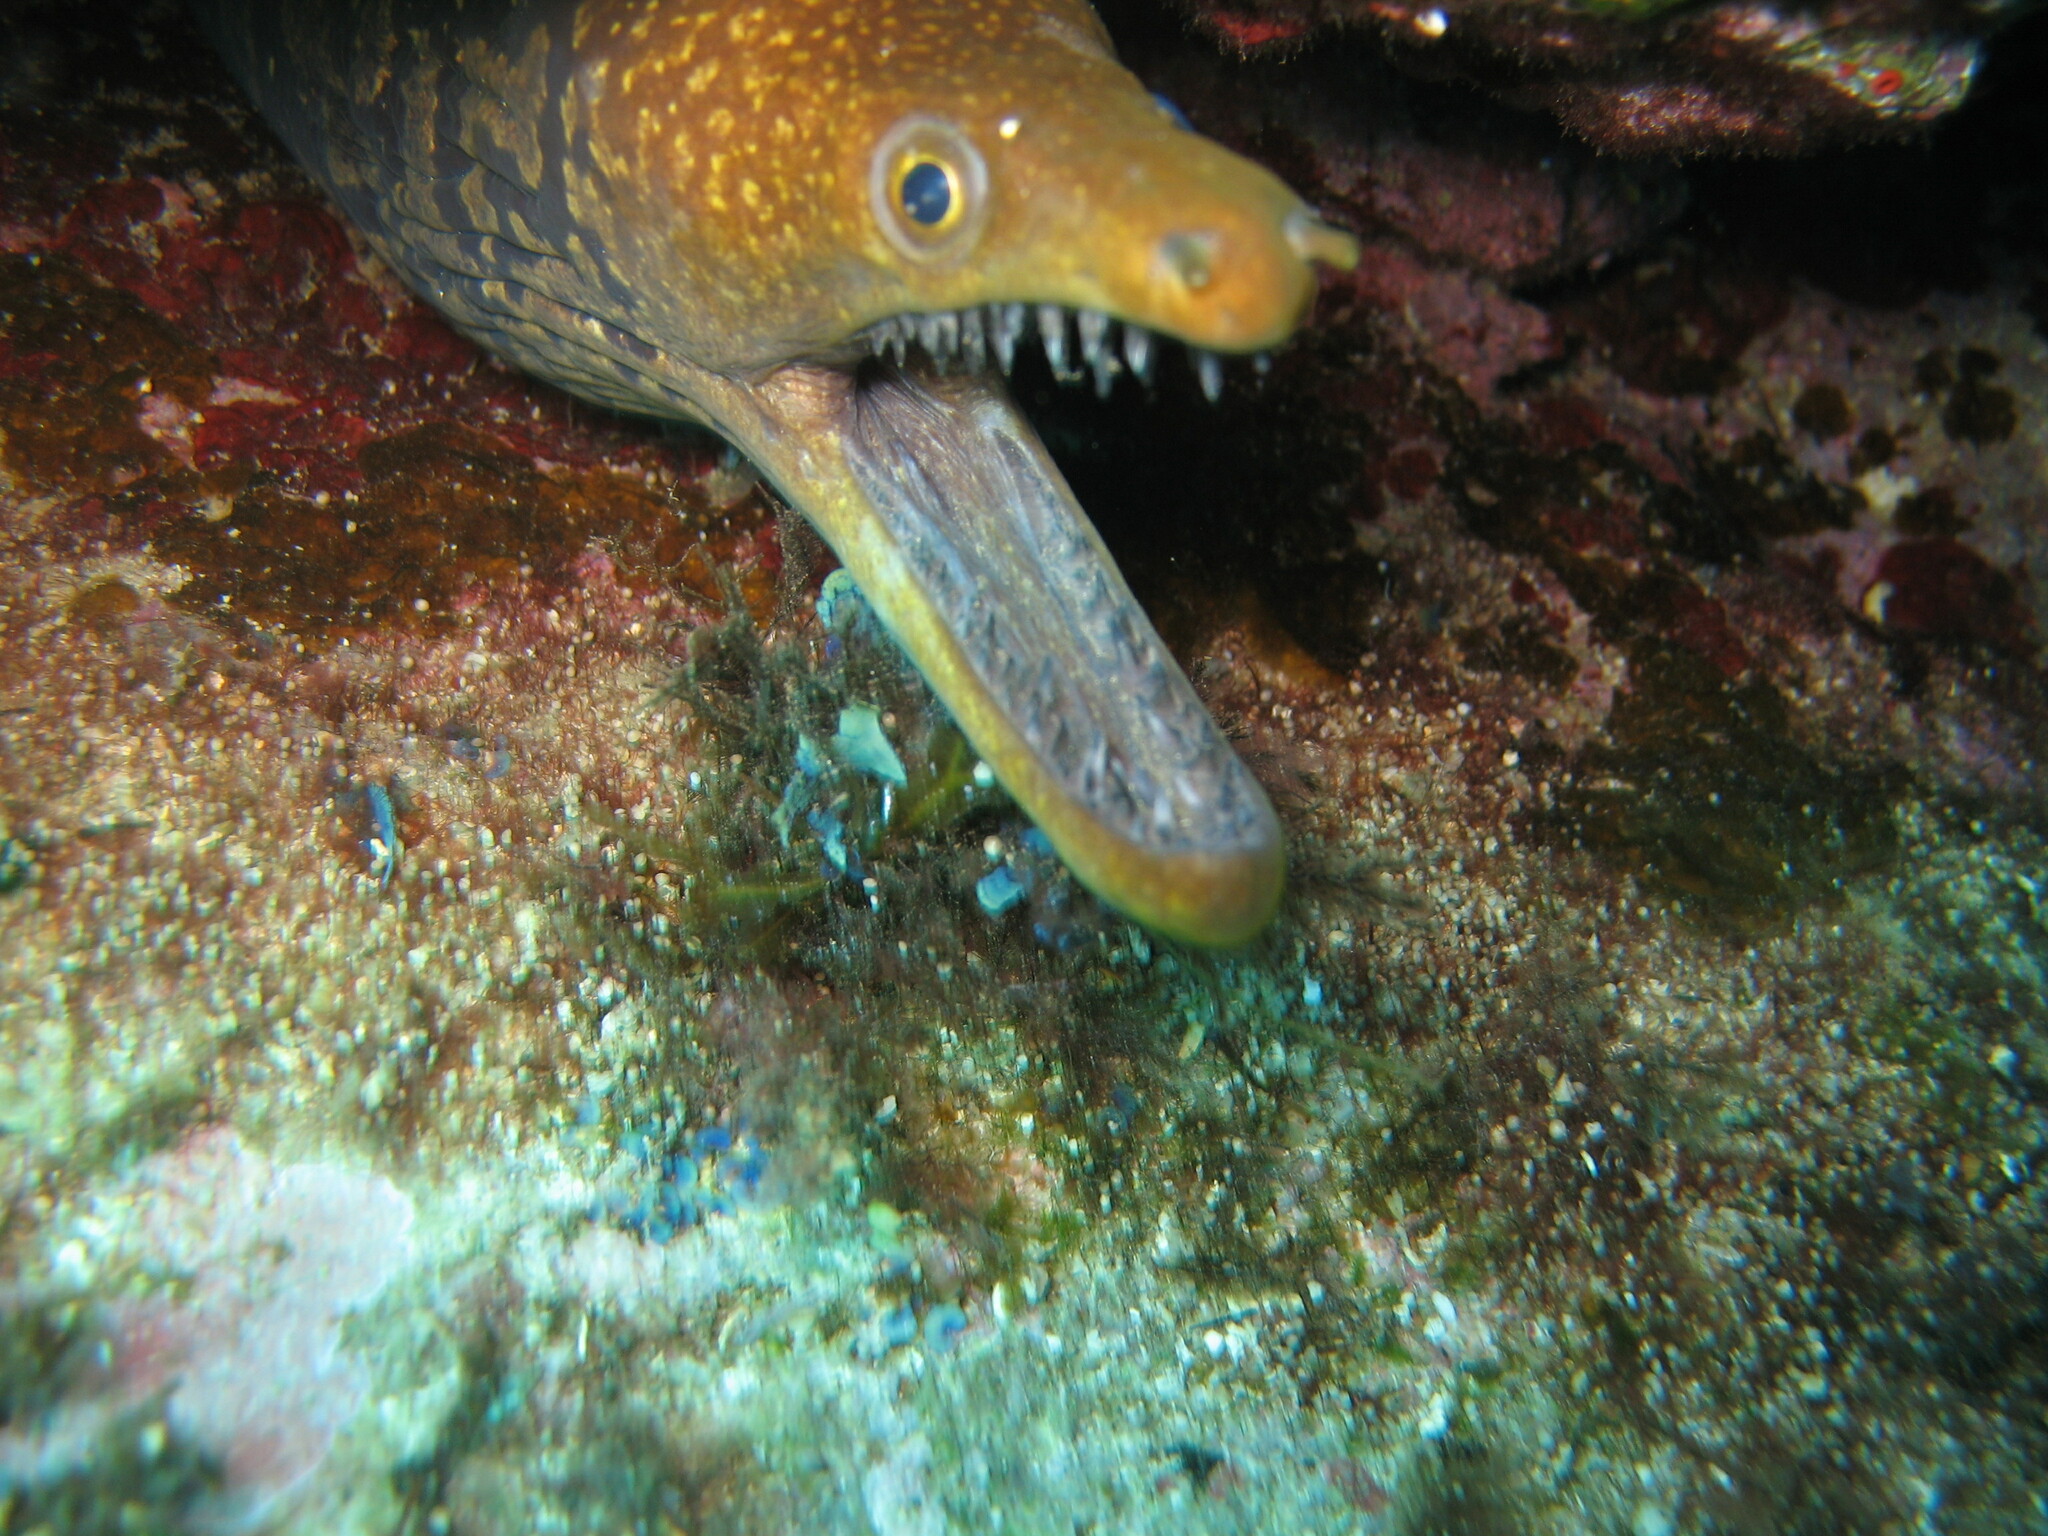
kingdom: Animalia
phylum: Chordata
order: Anguilliformes
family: Muraenidae
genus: Enchelycore
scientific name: Enchelycore anatina
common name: Fangtooth moray
